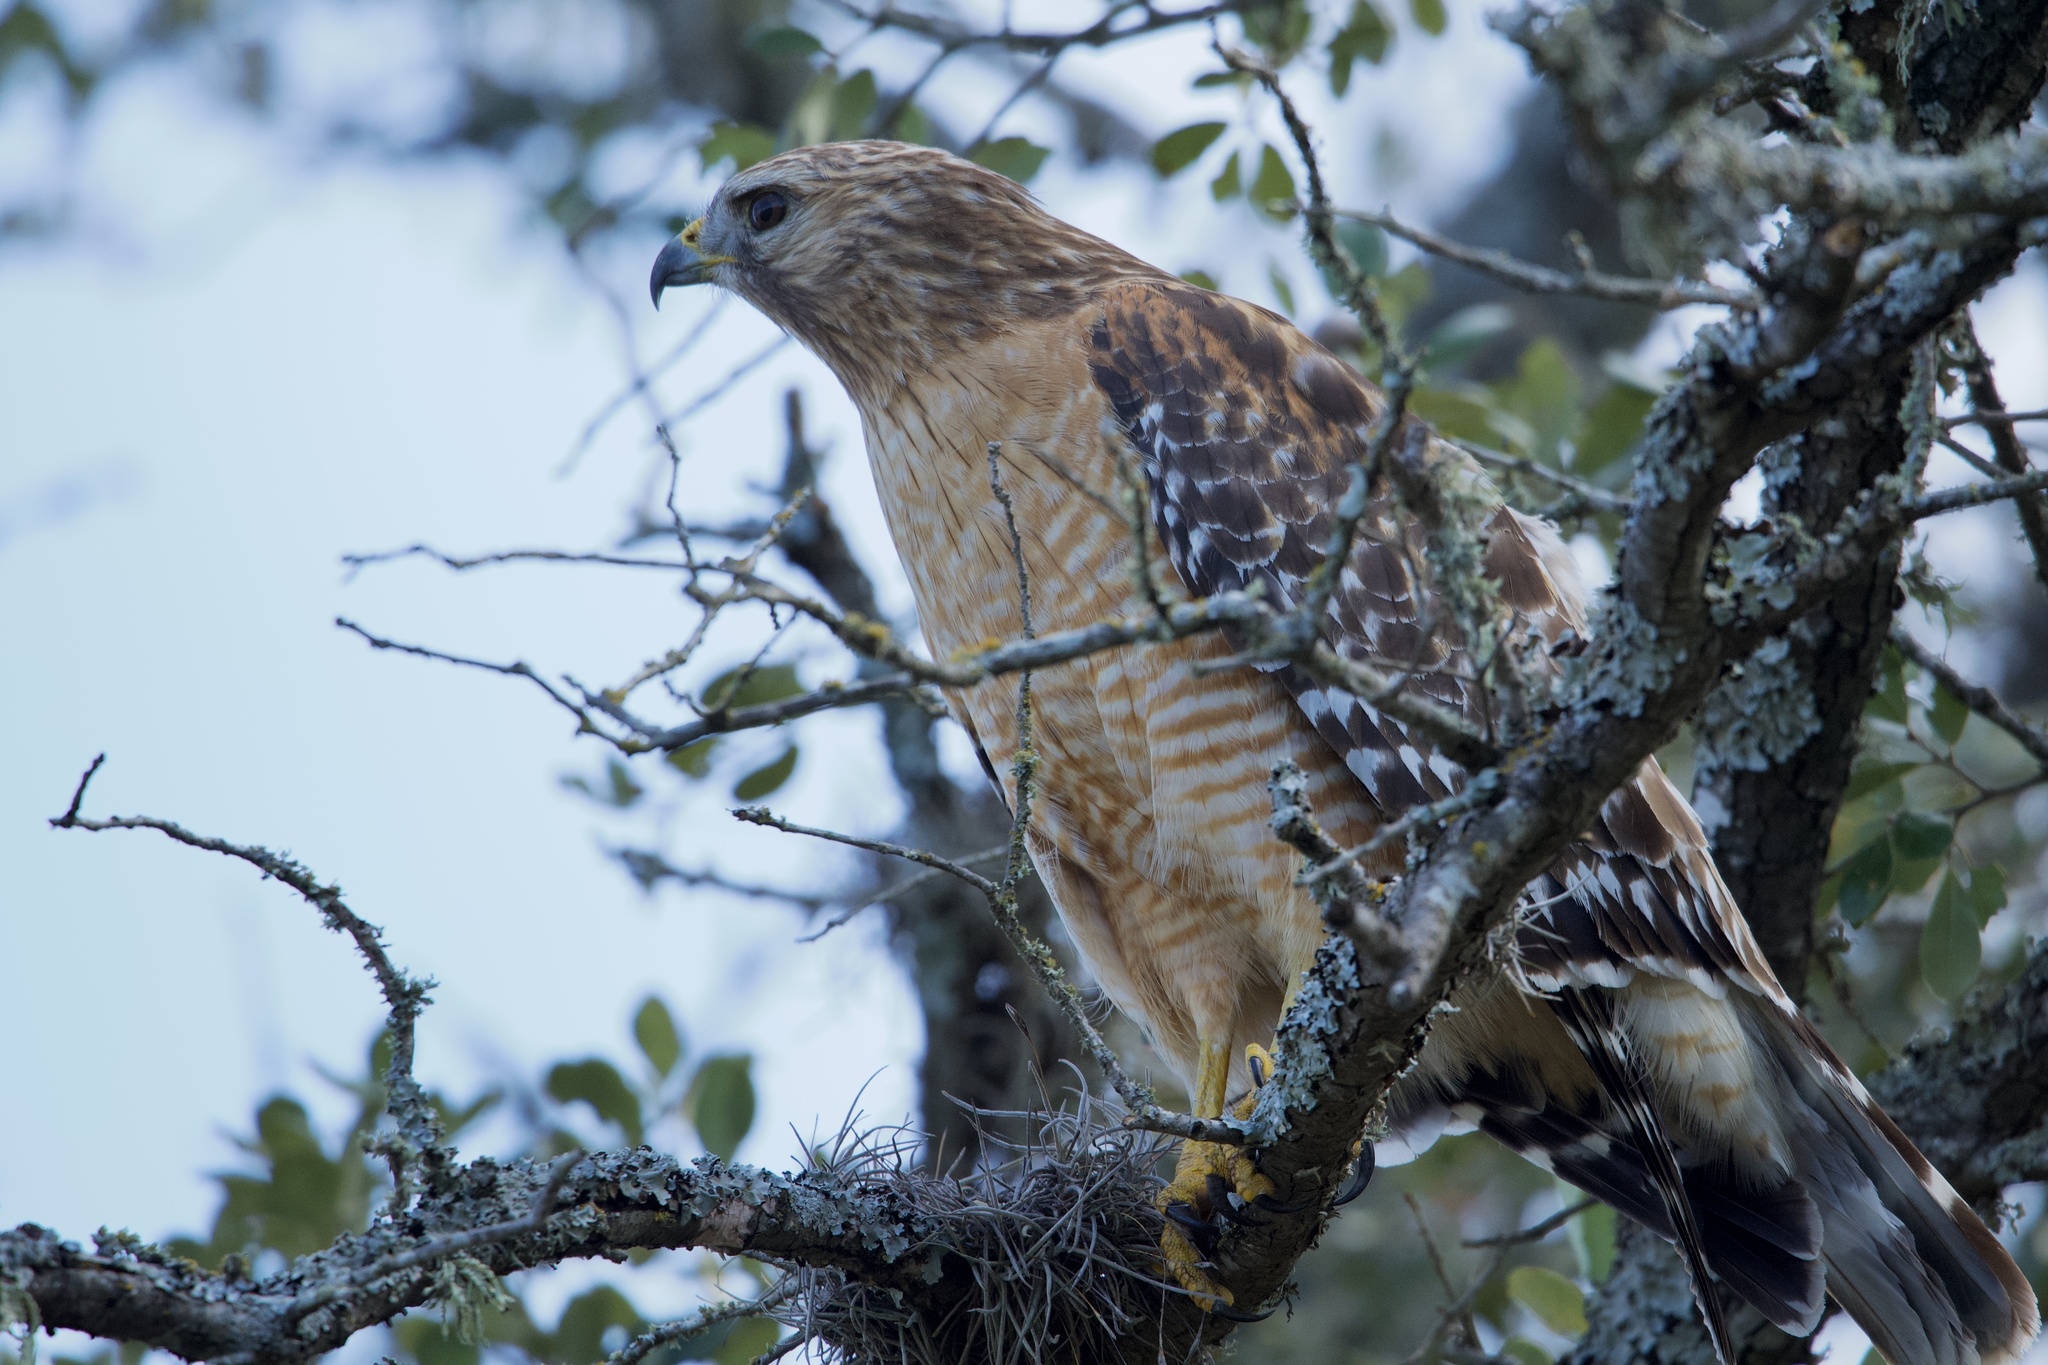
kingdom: Animalia
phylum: Chordata
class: Aves
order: Accipitriformes
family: Accipitridae
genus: Buteo
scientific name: Buteo lineatus
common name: Red-shouldered hawk
